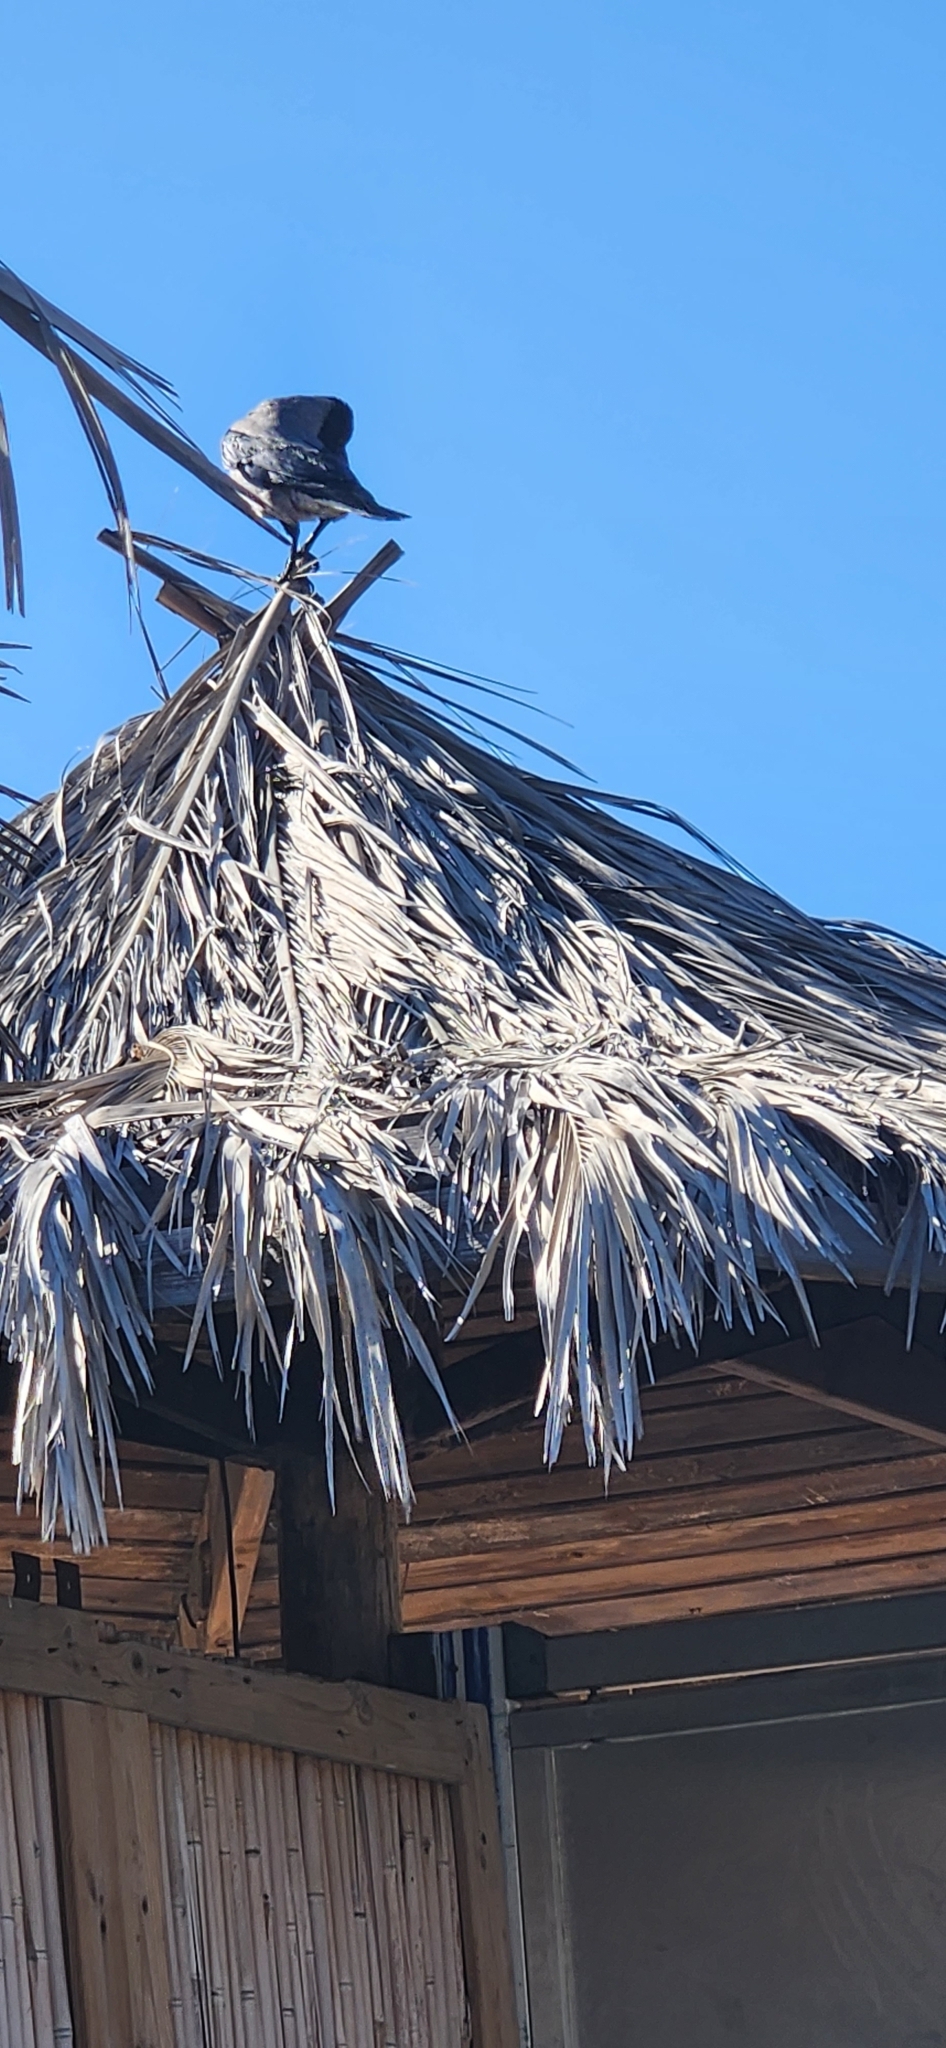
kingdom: Animalia
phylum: Chordata
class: Aves
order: Passeriformes
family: Corvidae
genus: Corvus
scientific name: Corvus cornix
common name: Hooded crow
